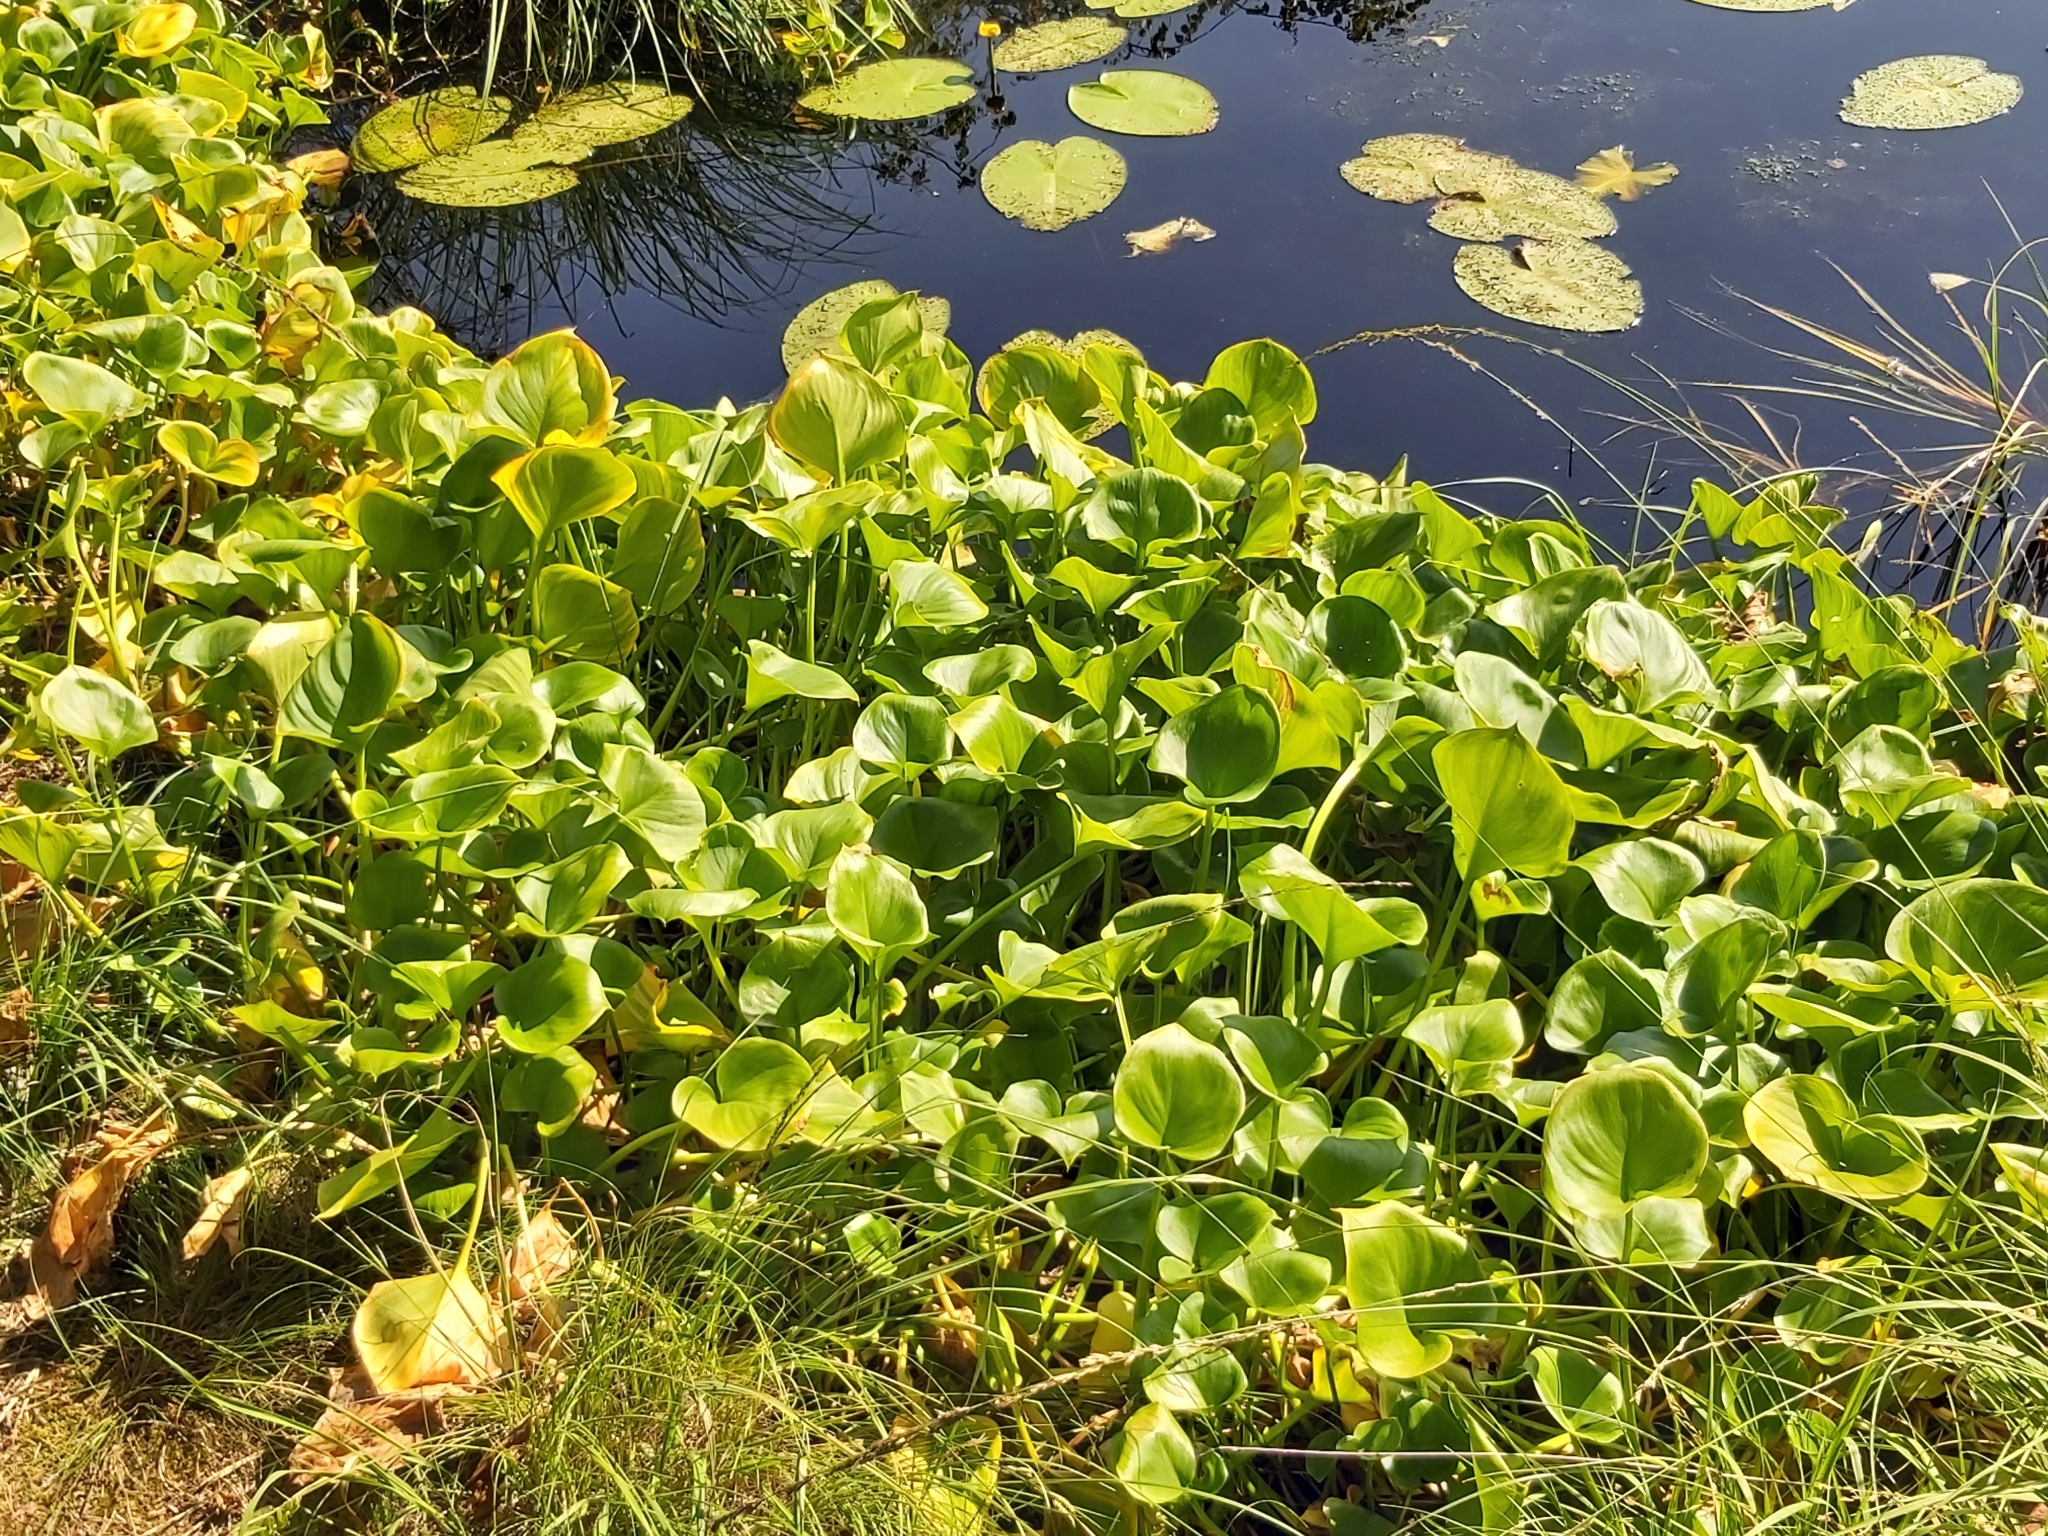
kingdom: Plantae
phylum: Tracheophyta
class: Liliopsida
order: Alismatales
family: Araceae
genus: Calla
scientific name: Calla palustris
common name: Bog arum
